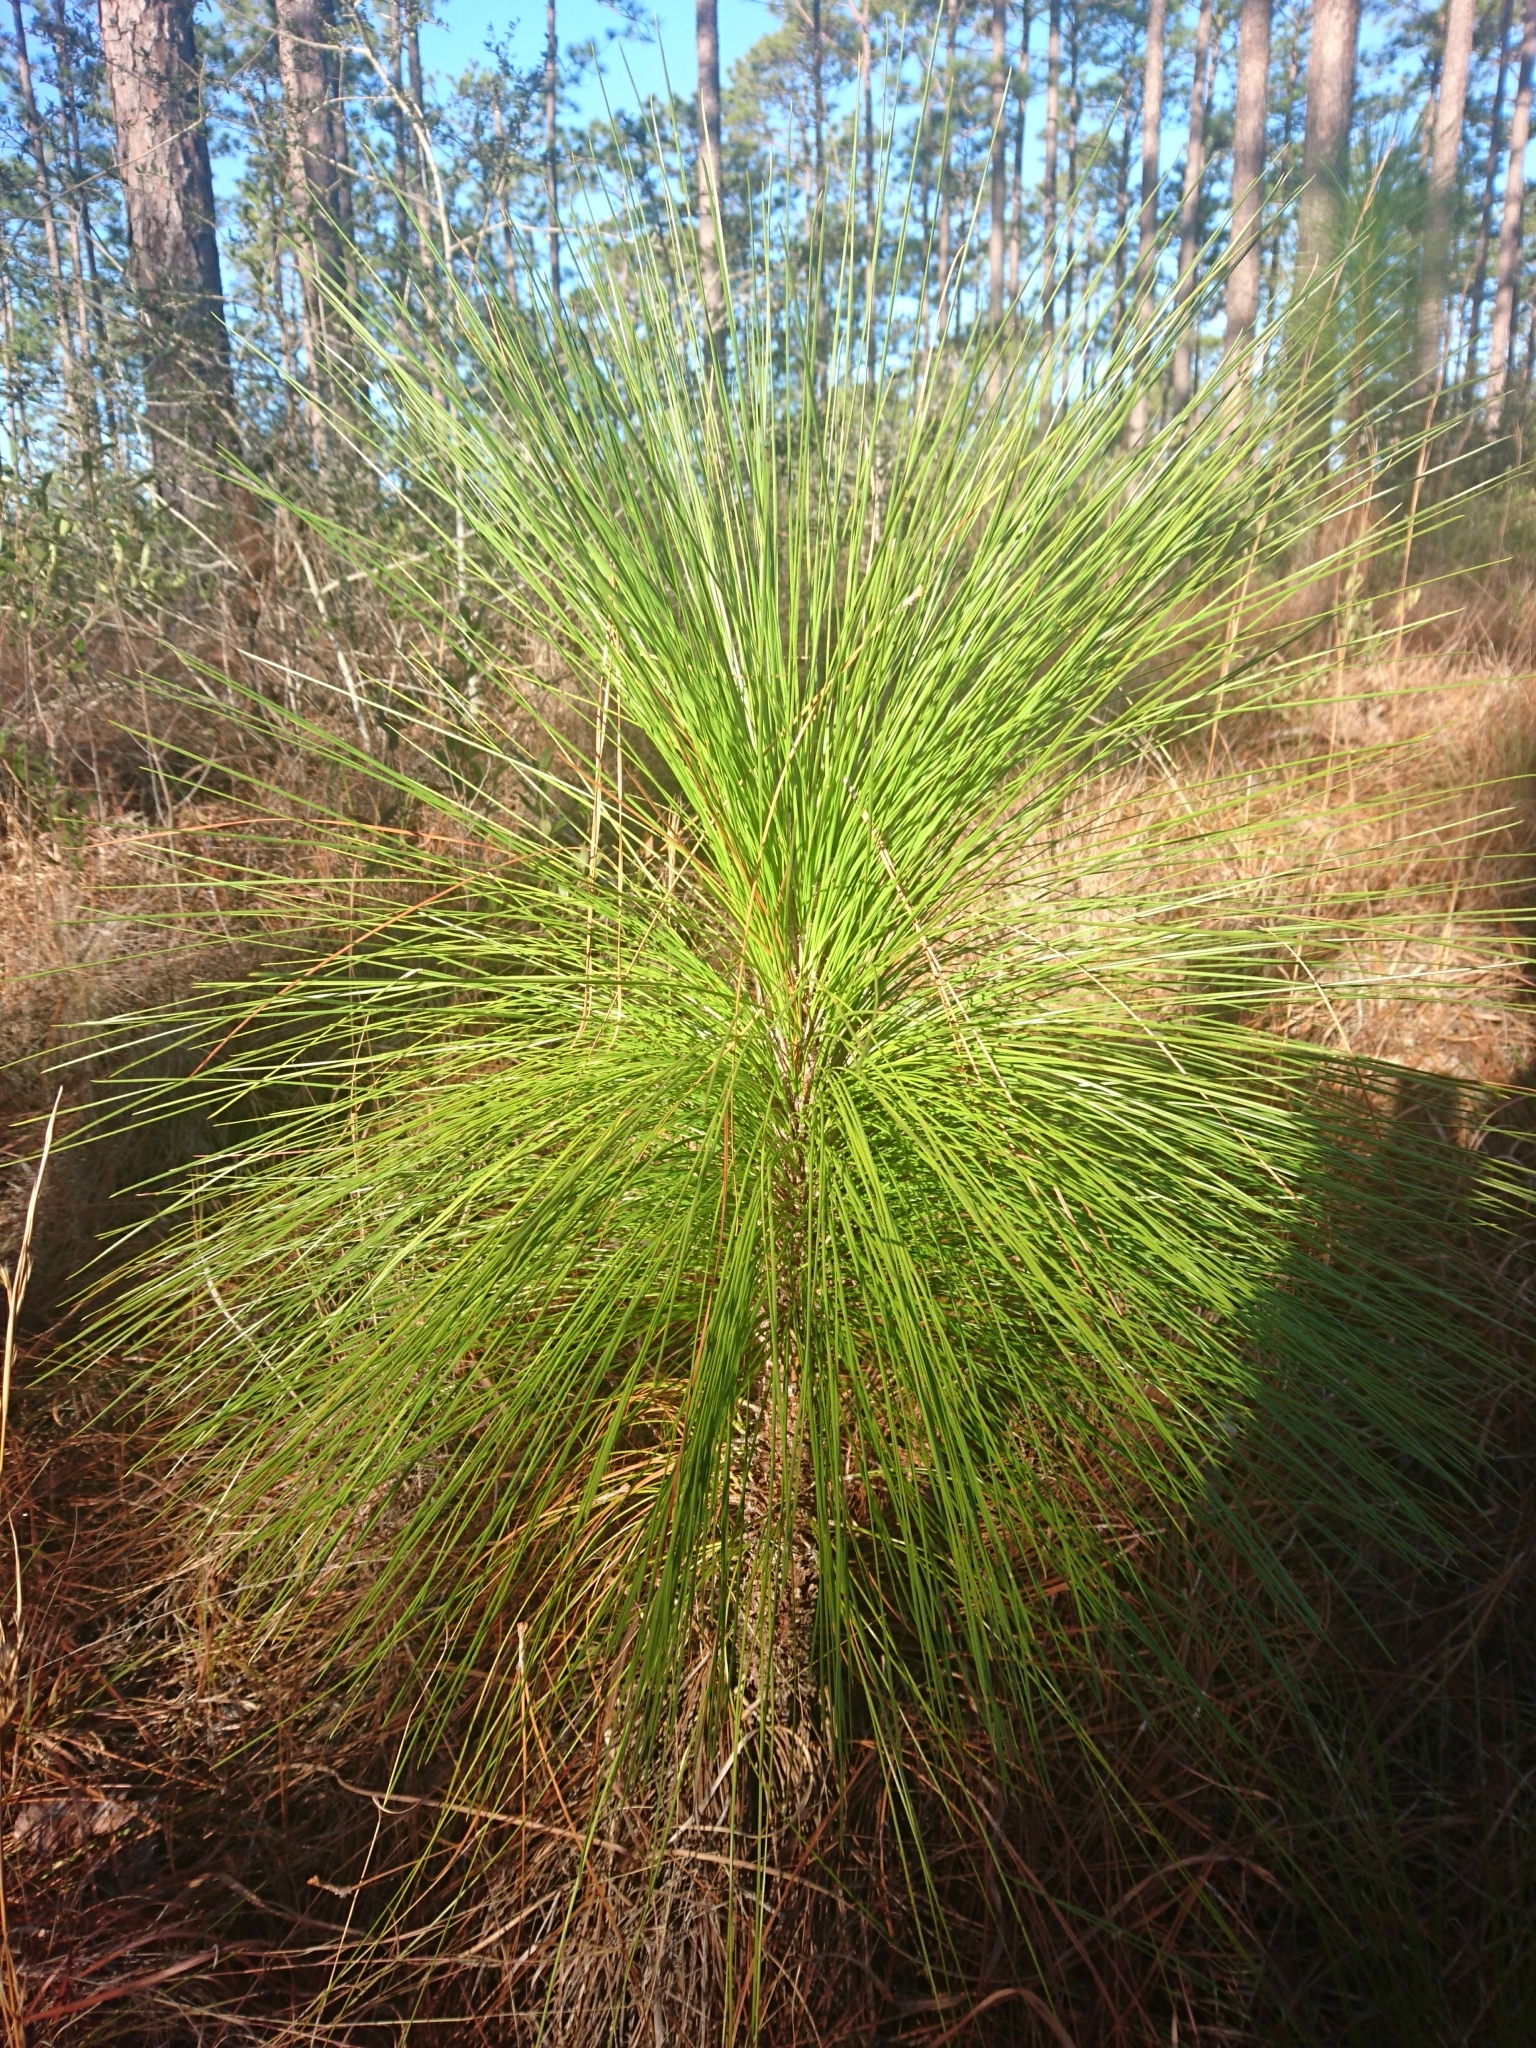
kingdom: Plantae
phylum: Tracheophyta
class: Pinopsida
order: Pinales
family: Pinaceae
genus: Pinus
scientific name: Pinus palustris
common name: Longleaf pine
